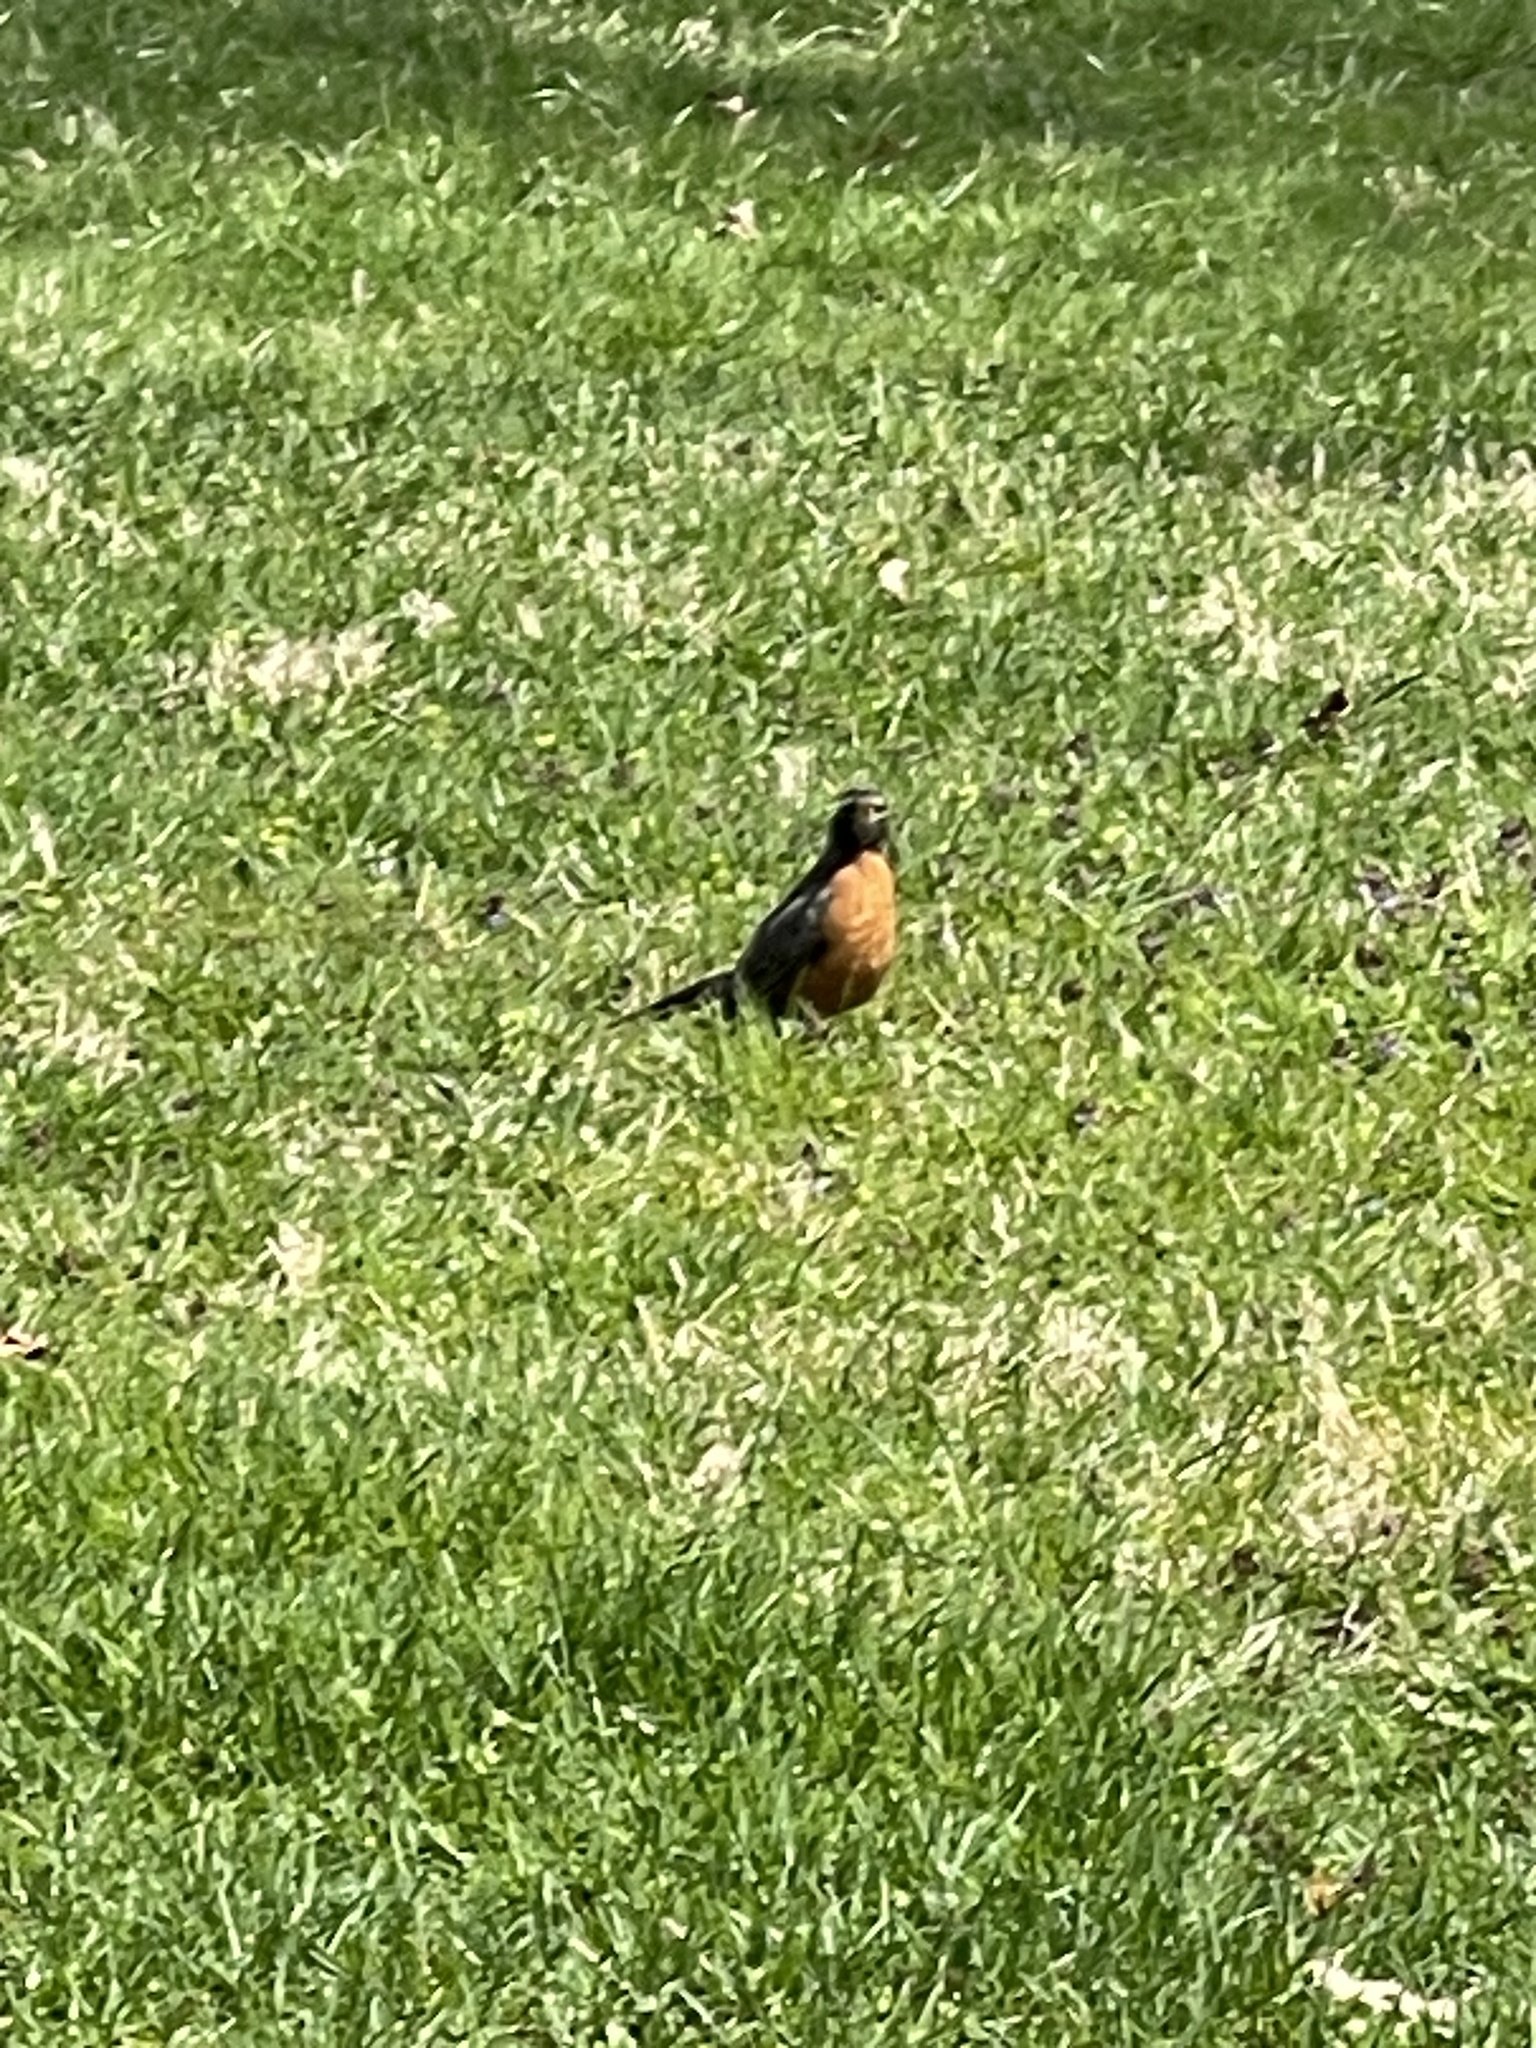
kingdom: Animalia
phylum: Chordata
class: Aves
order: Passeriformes
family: Turdidae
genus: Turdus
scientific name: Turdus migratorius
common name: American robin
